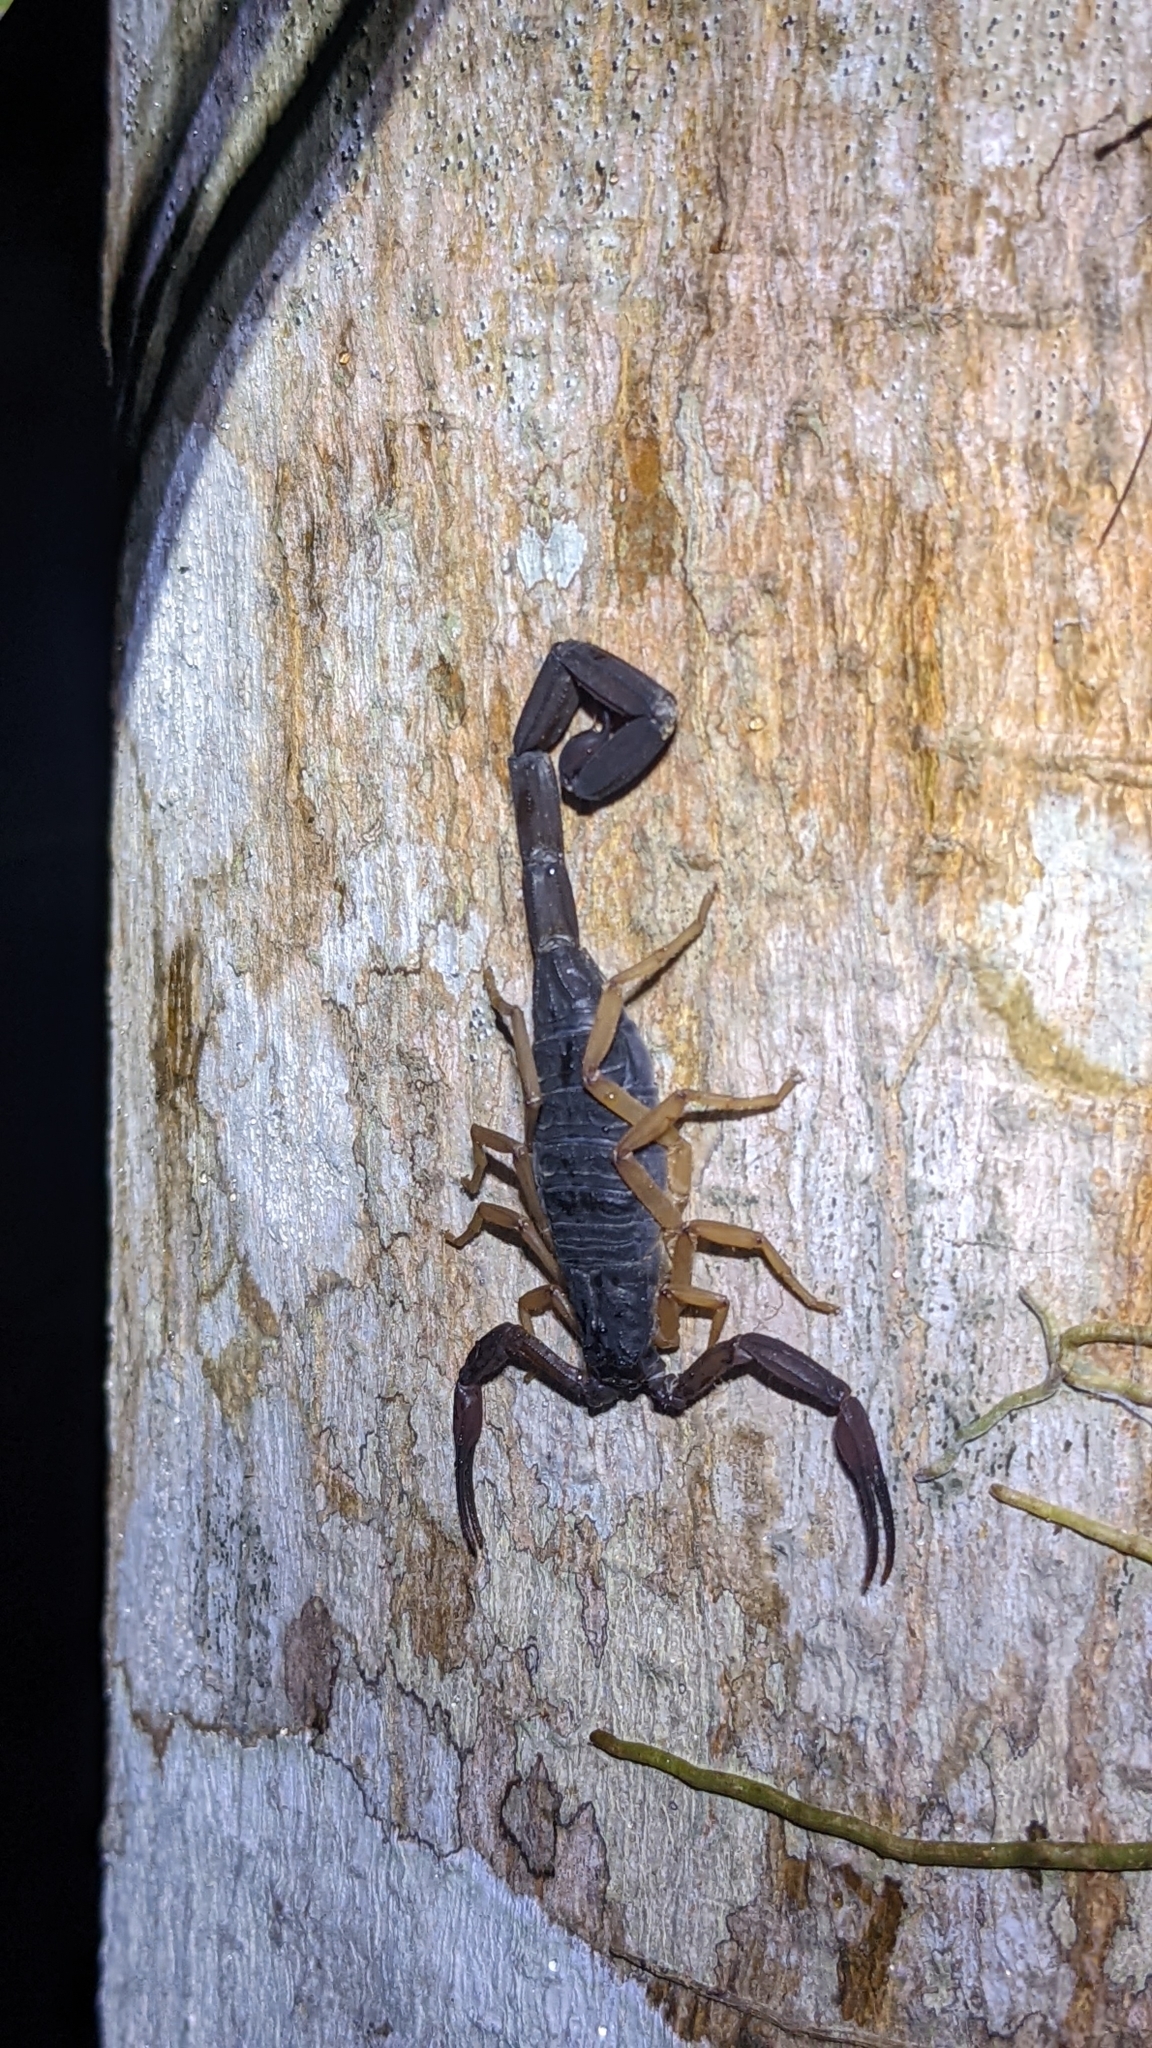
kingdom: Animalia
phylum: Arthropoda
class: Arachnida
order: Scorpiones
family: Buthidae
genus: Centruroides
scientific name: Centruroides gracilis
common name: Scorpions
